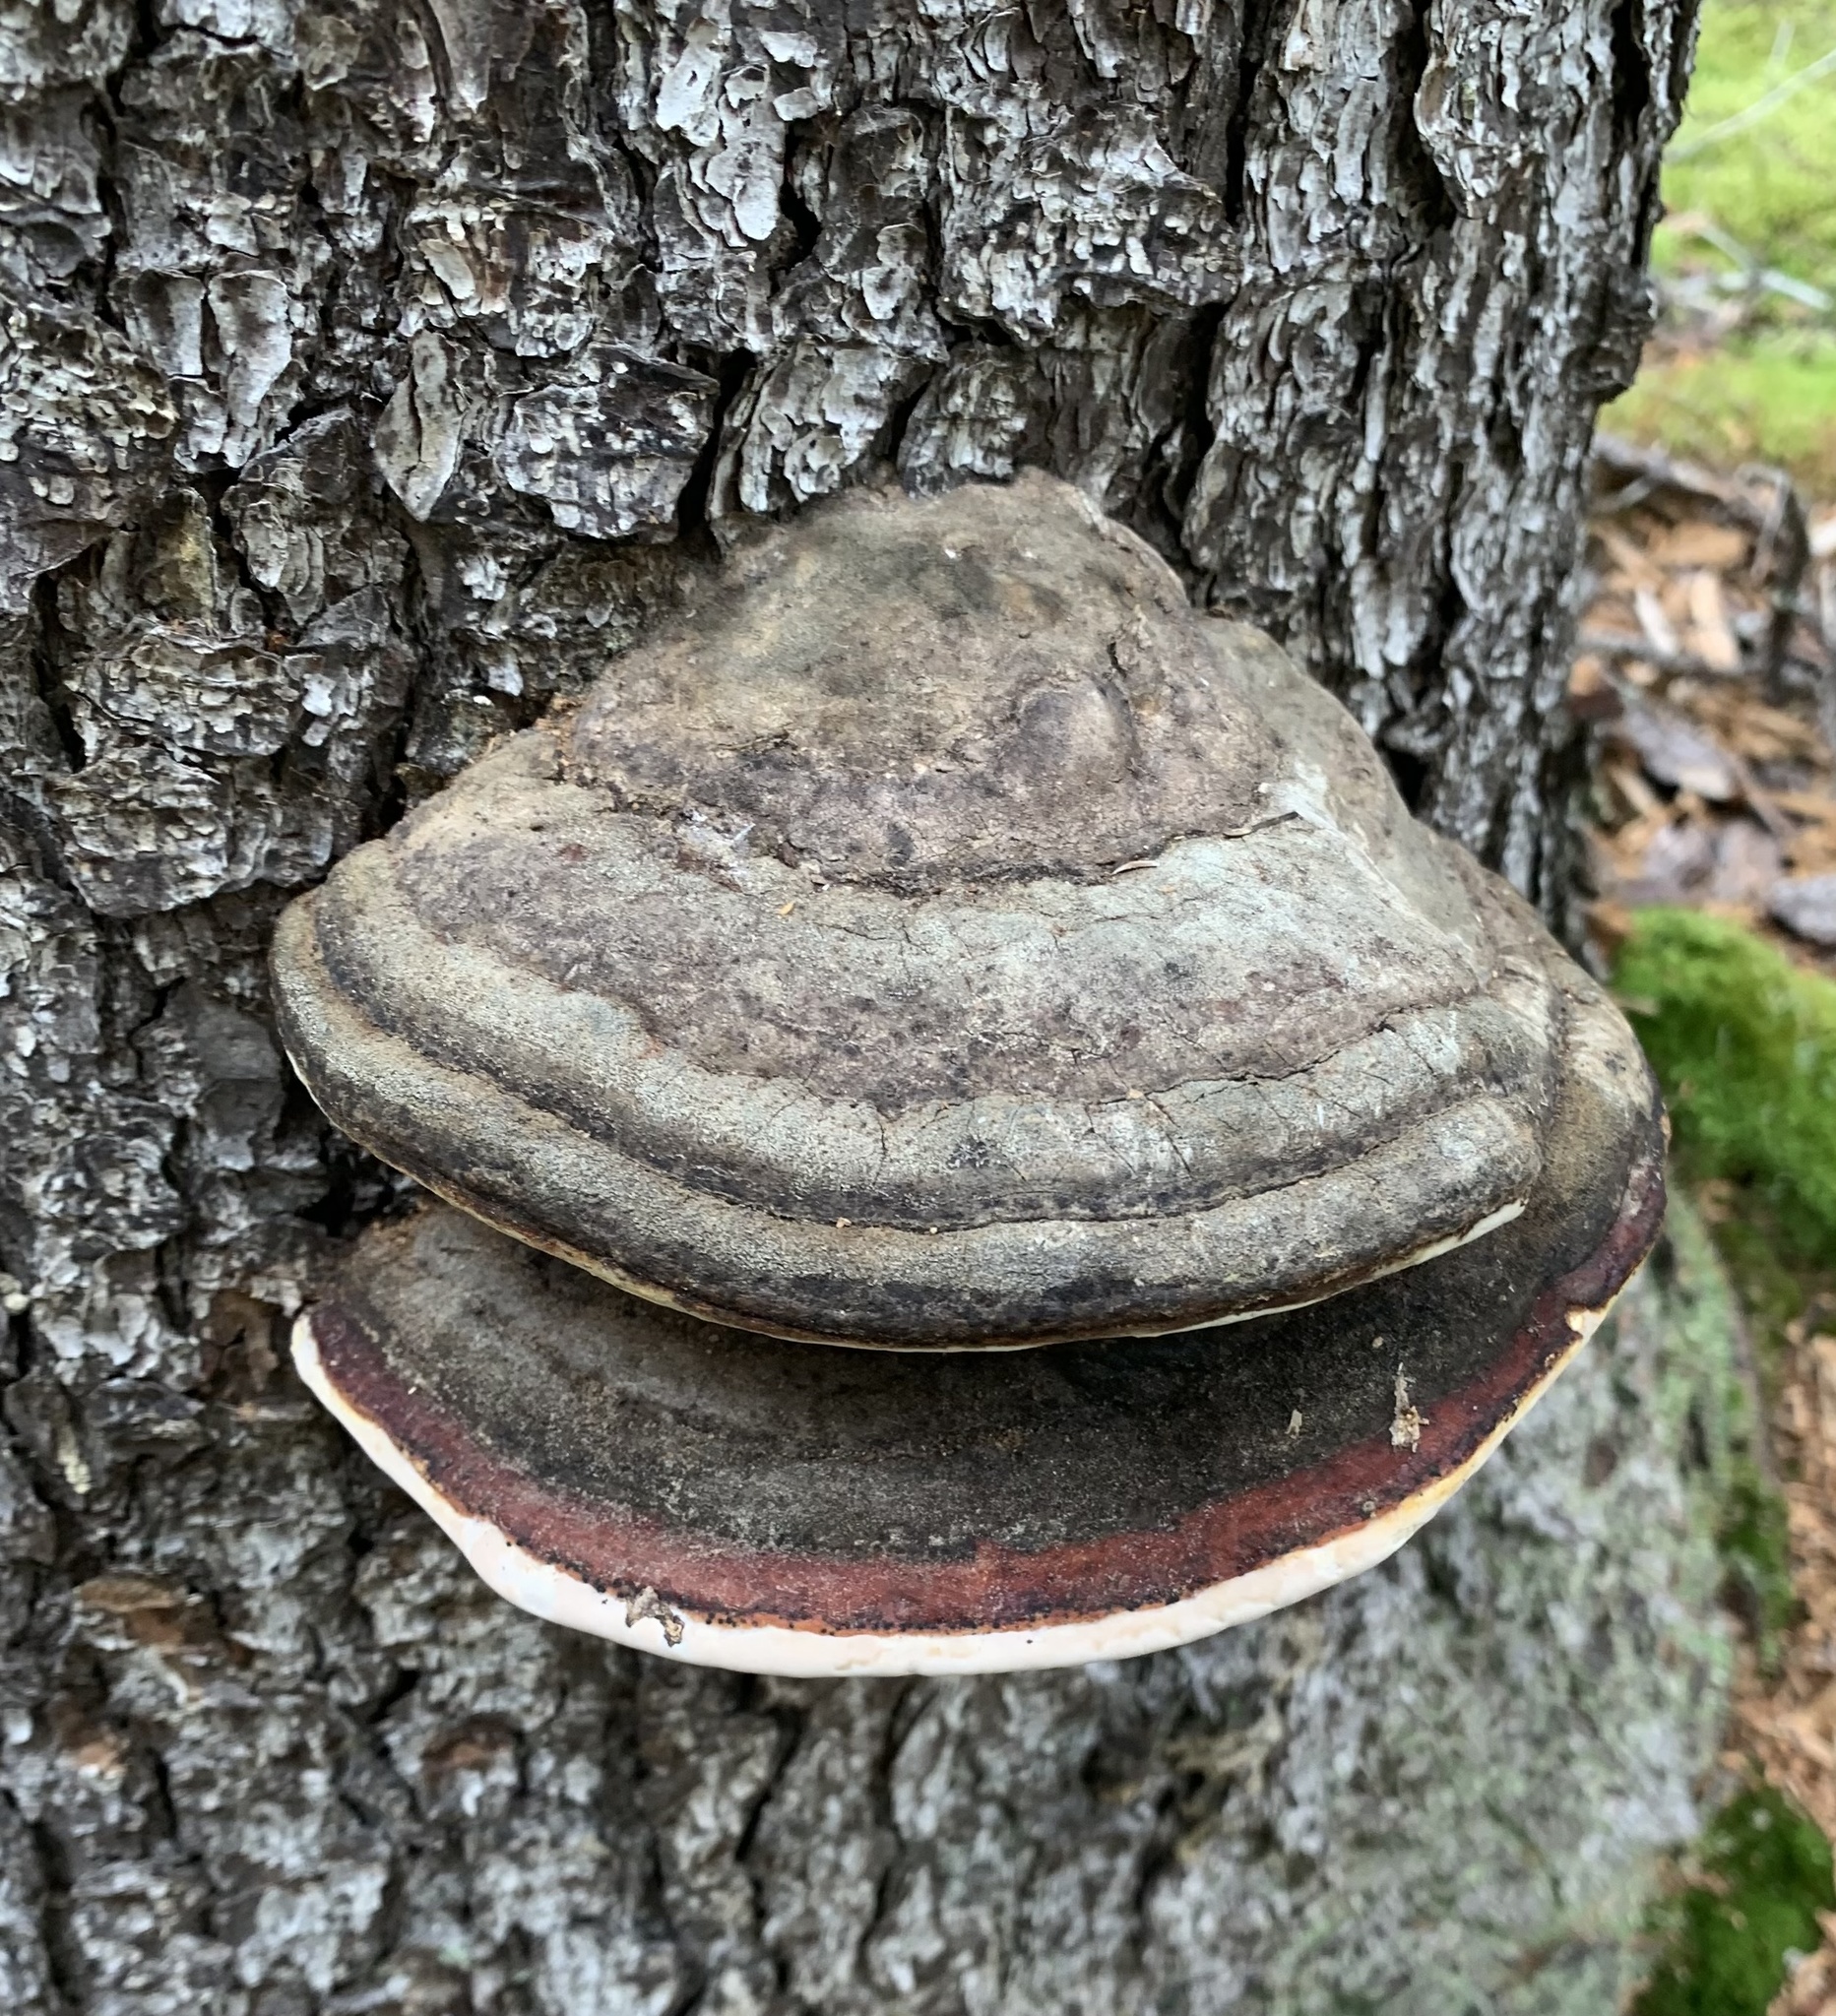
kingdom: Fungi
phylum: Basidiomycota
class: Agaricomycetes
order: Polyporales
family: Fomitopsidaceae
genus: Fomitopsis
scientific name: Fomitopsis mounceae
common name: Northern red belt
